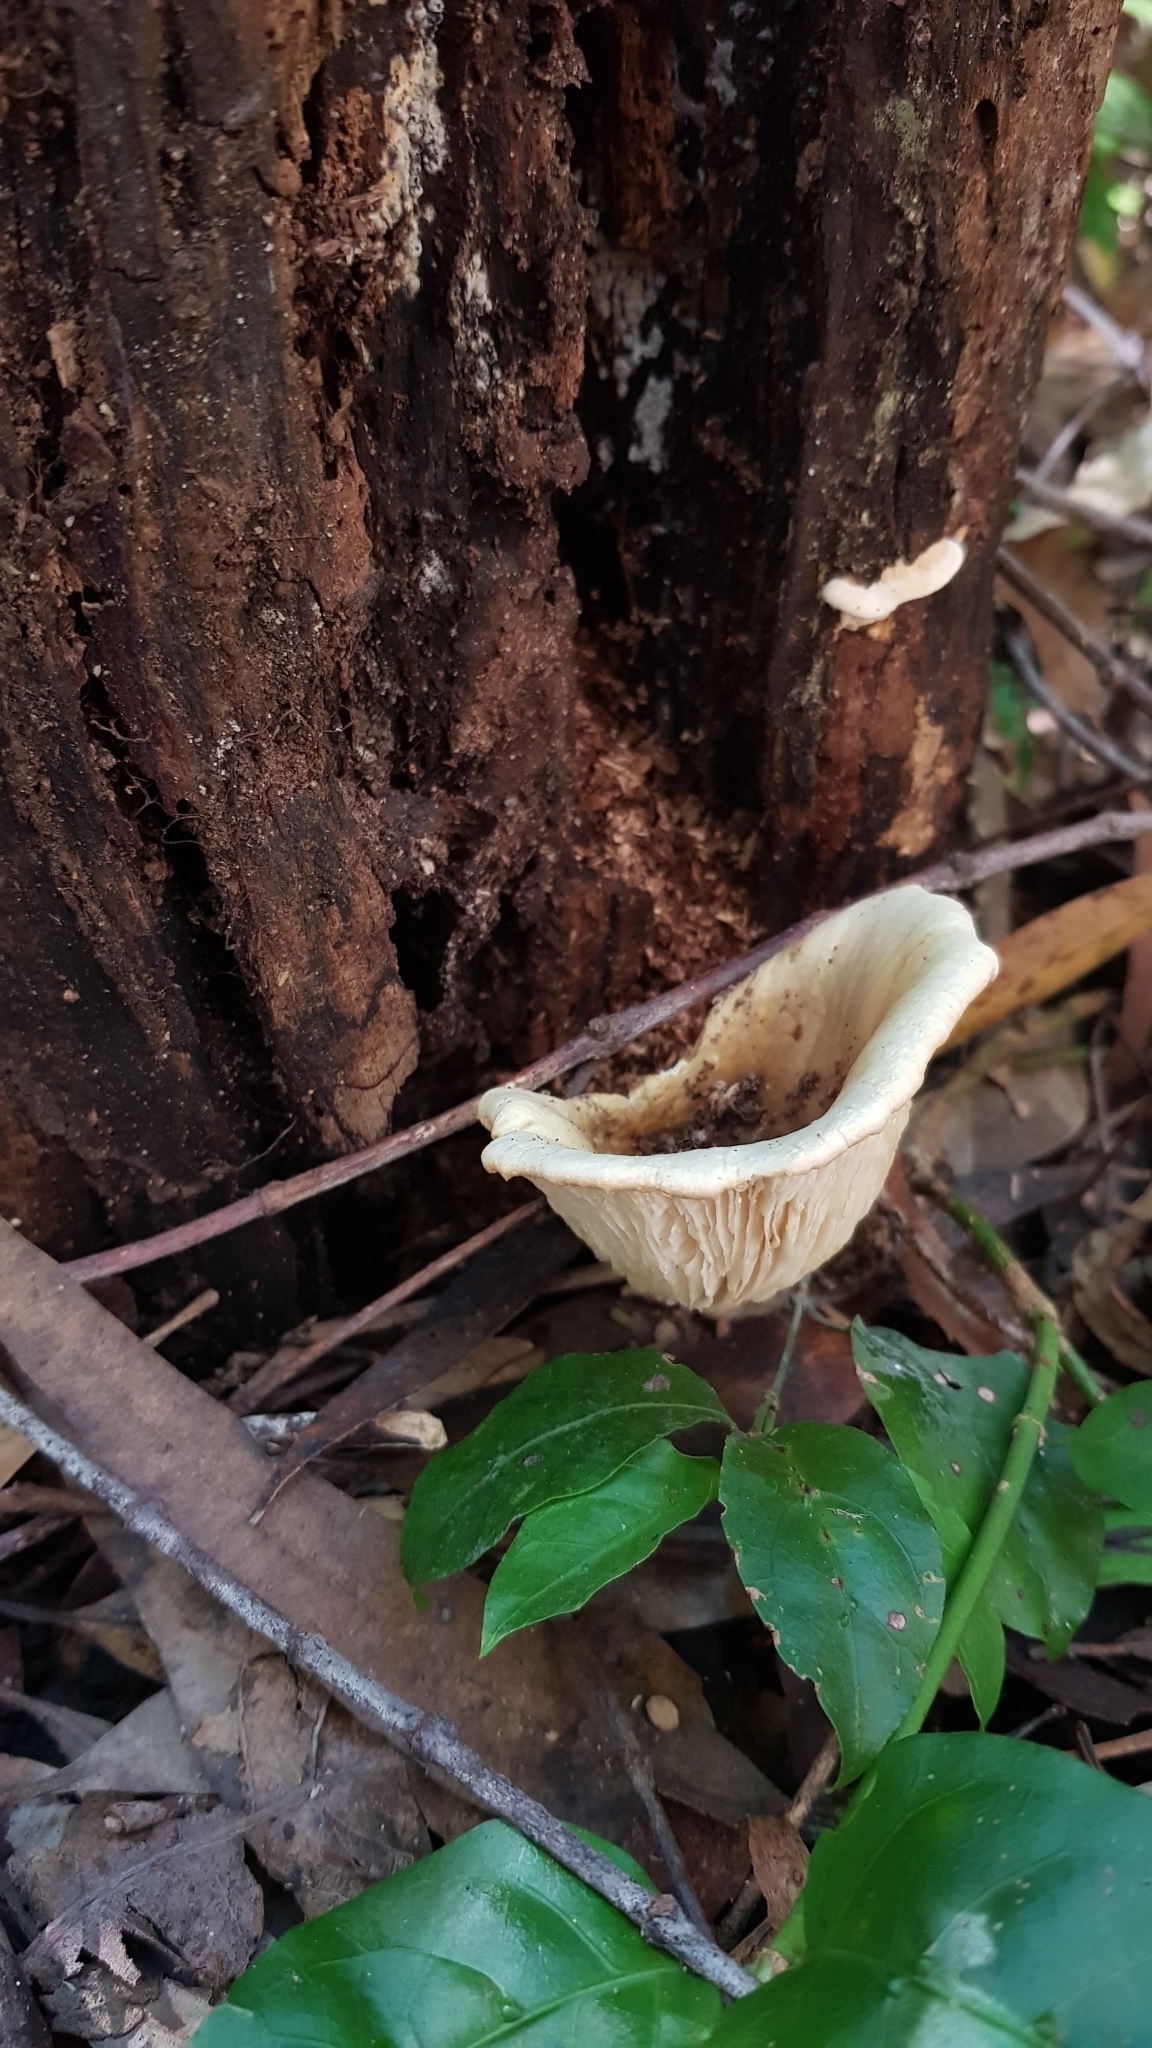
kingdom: Fungi
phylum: Basidiomycota
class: Agaricomycetes
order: Agaricales
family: Omphalotaceae
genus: Omphalotus
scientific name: Omphalotus nidiformis
